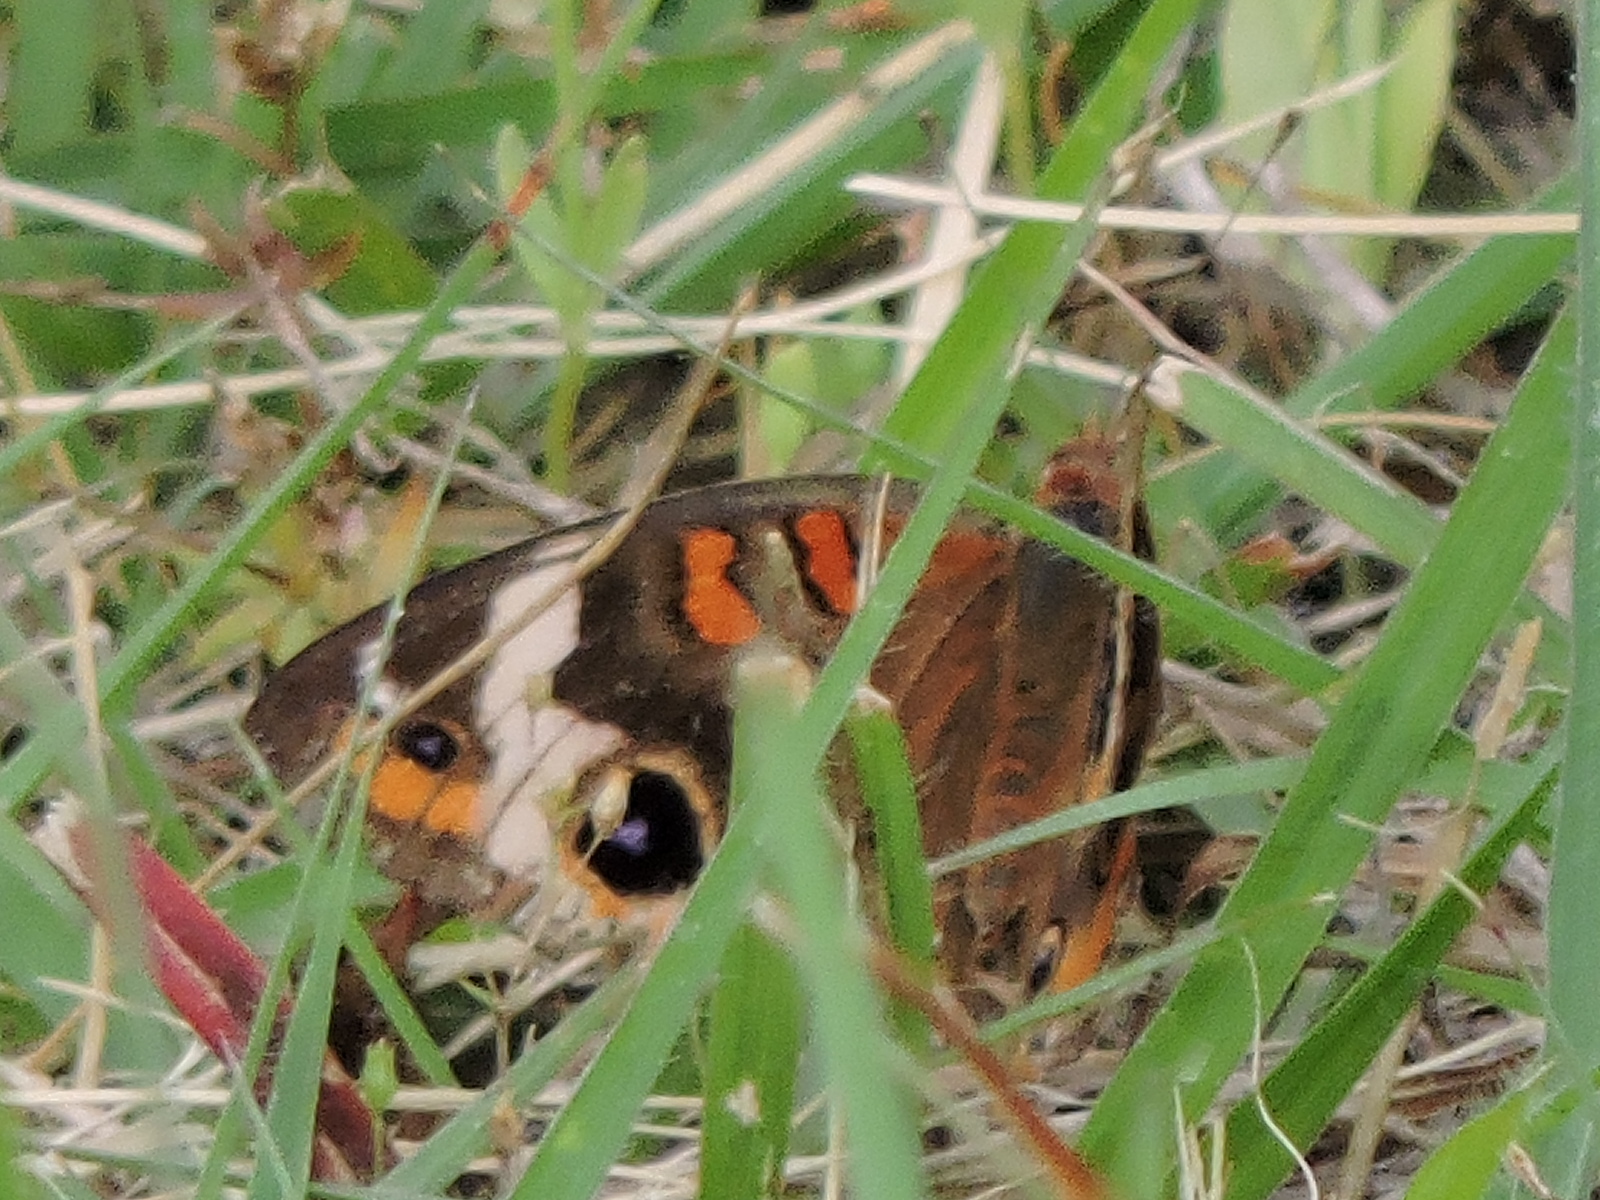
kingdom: Animalia
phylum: Arthropoda
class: Insecta
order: Lepidoptera
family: Nymphalidae
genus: Junonia
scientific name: Junonia coenia
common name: Common buckeye
